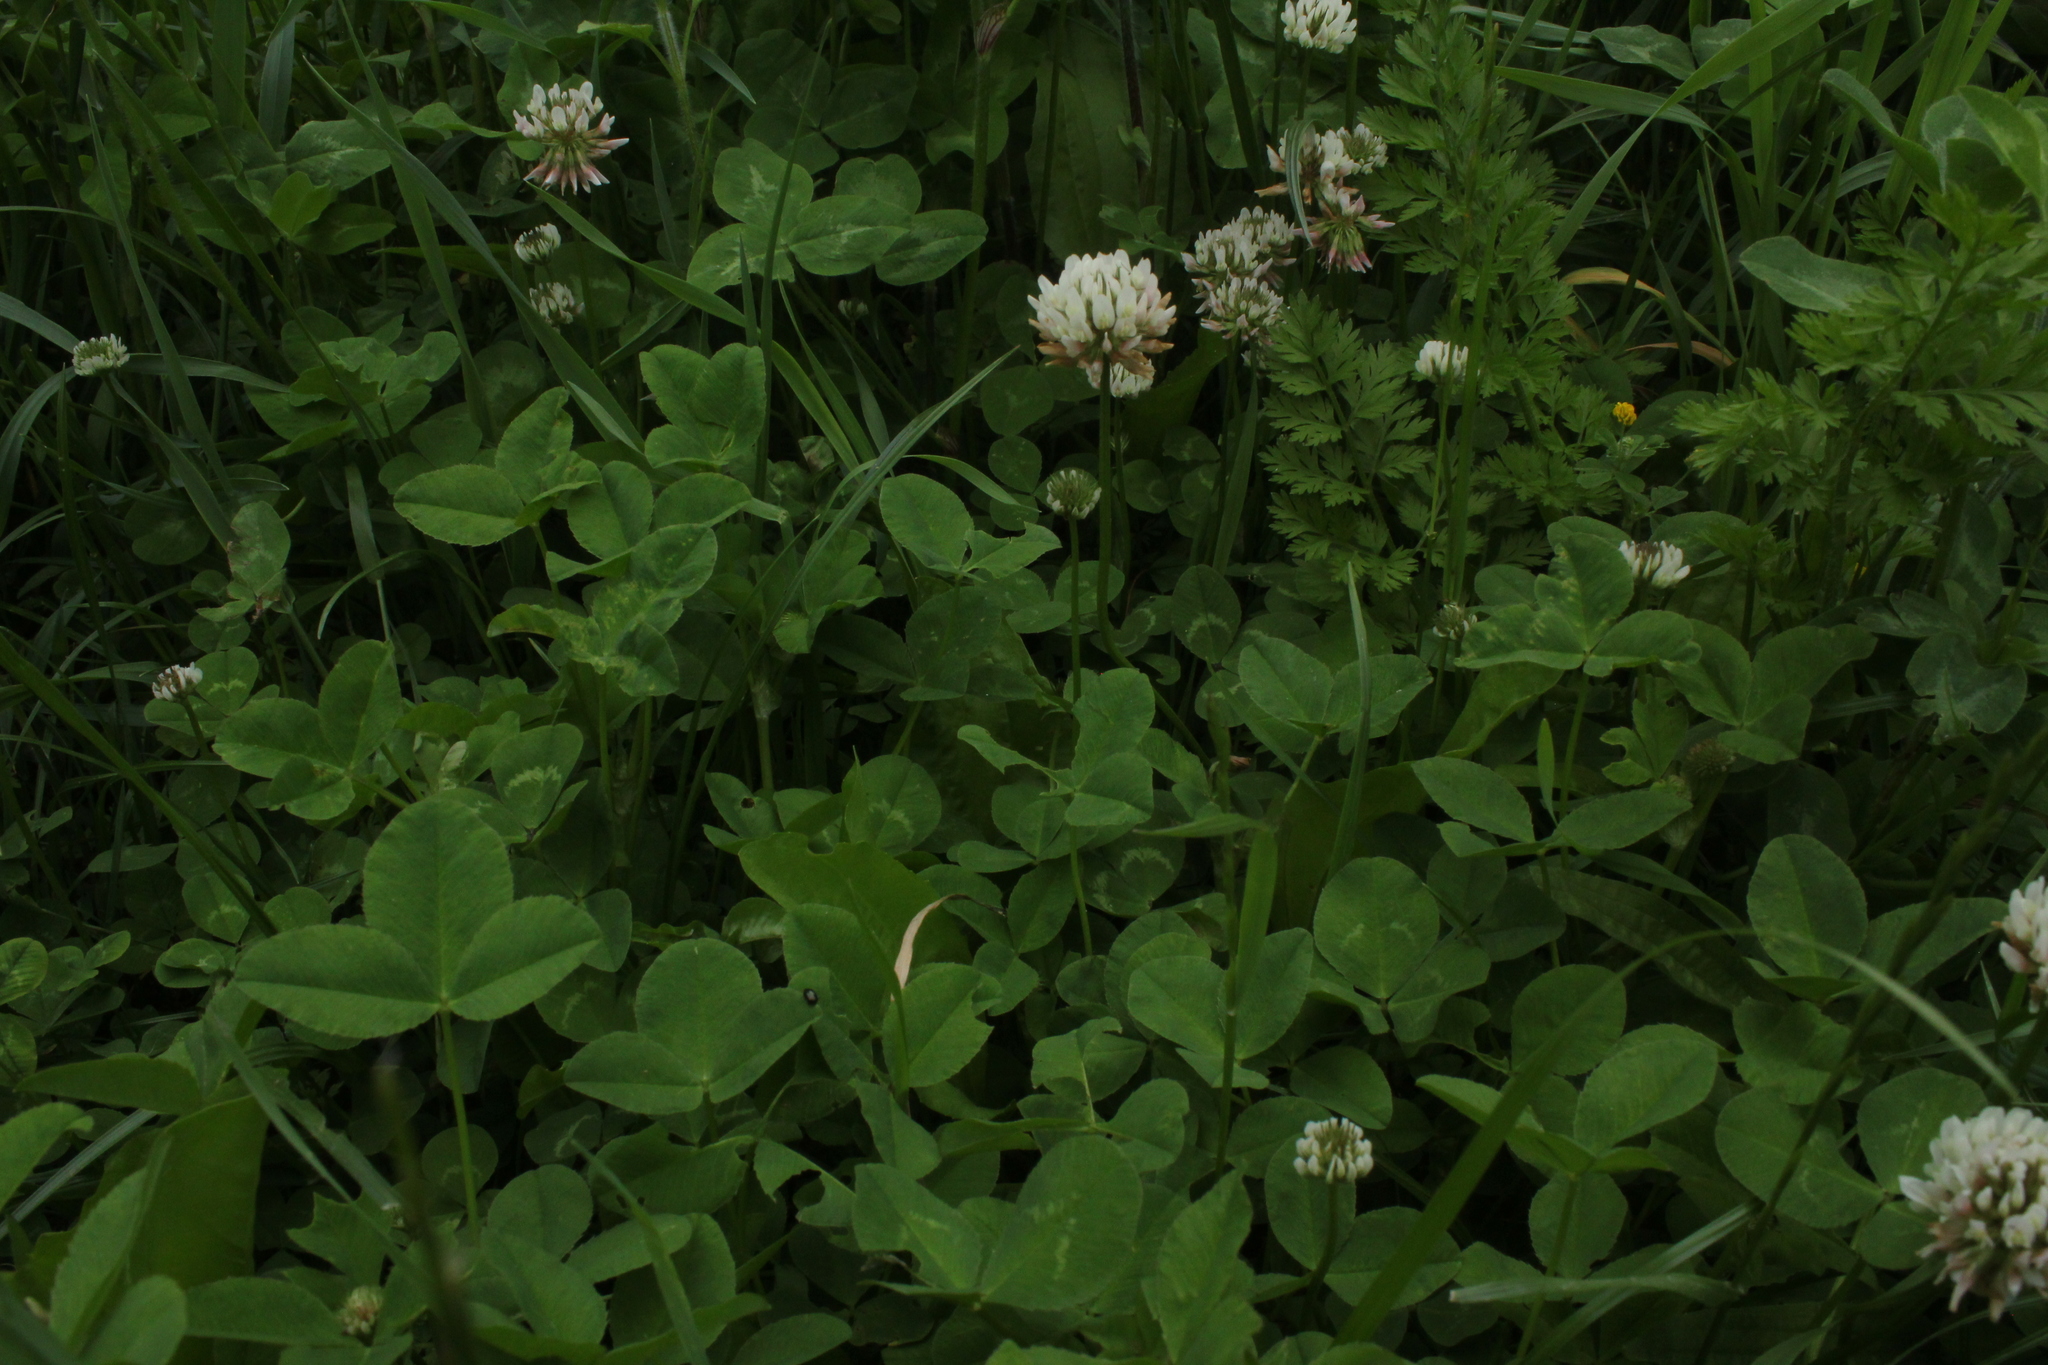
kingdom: Plantae
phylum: Tracheophyta
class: Magnoliopsida
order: Fabales
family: Fabaceae
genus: Trifolium
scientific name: Trifolium repens
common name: White clover
